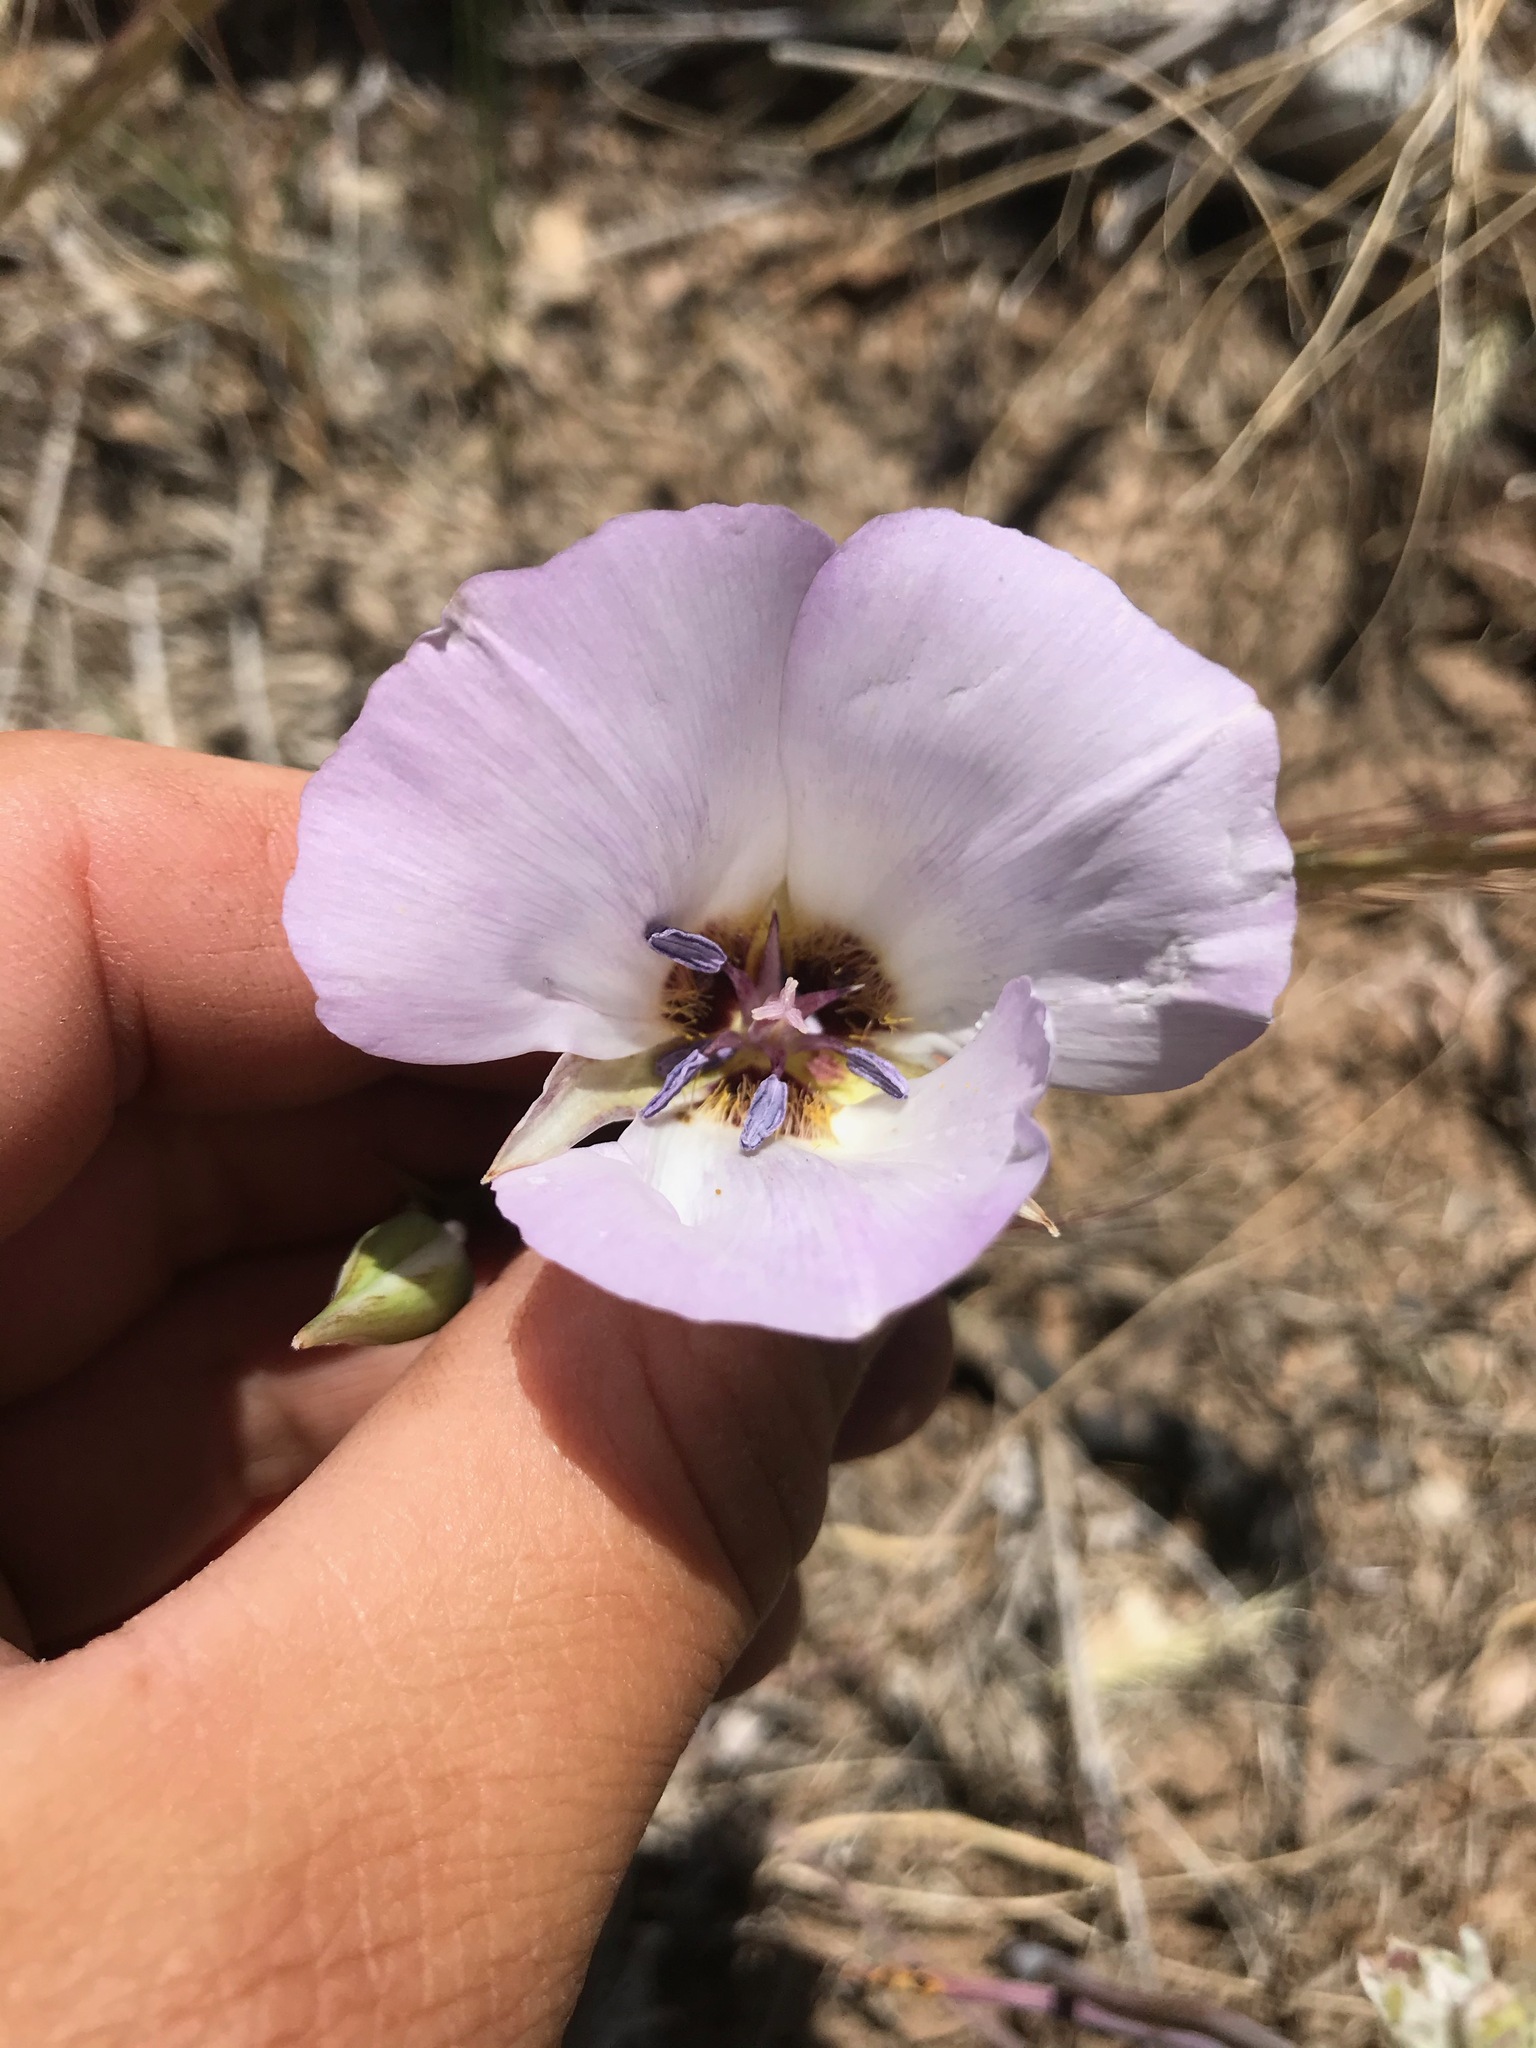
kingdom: Plantae
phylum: Tracheophyta
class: Liliopsida
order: Liliales
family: Liliaceae
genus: Calochortus
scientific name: Calochortus invenustus
